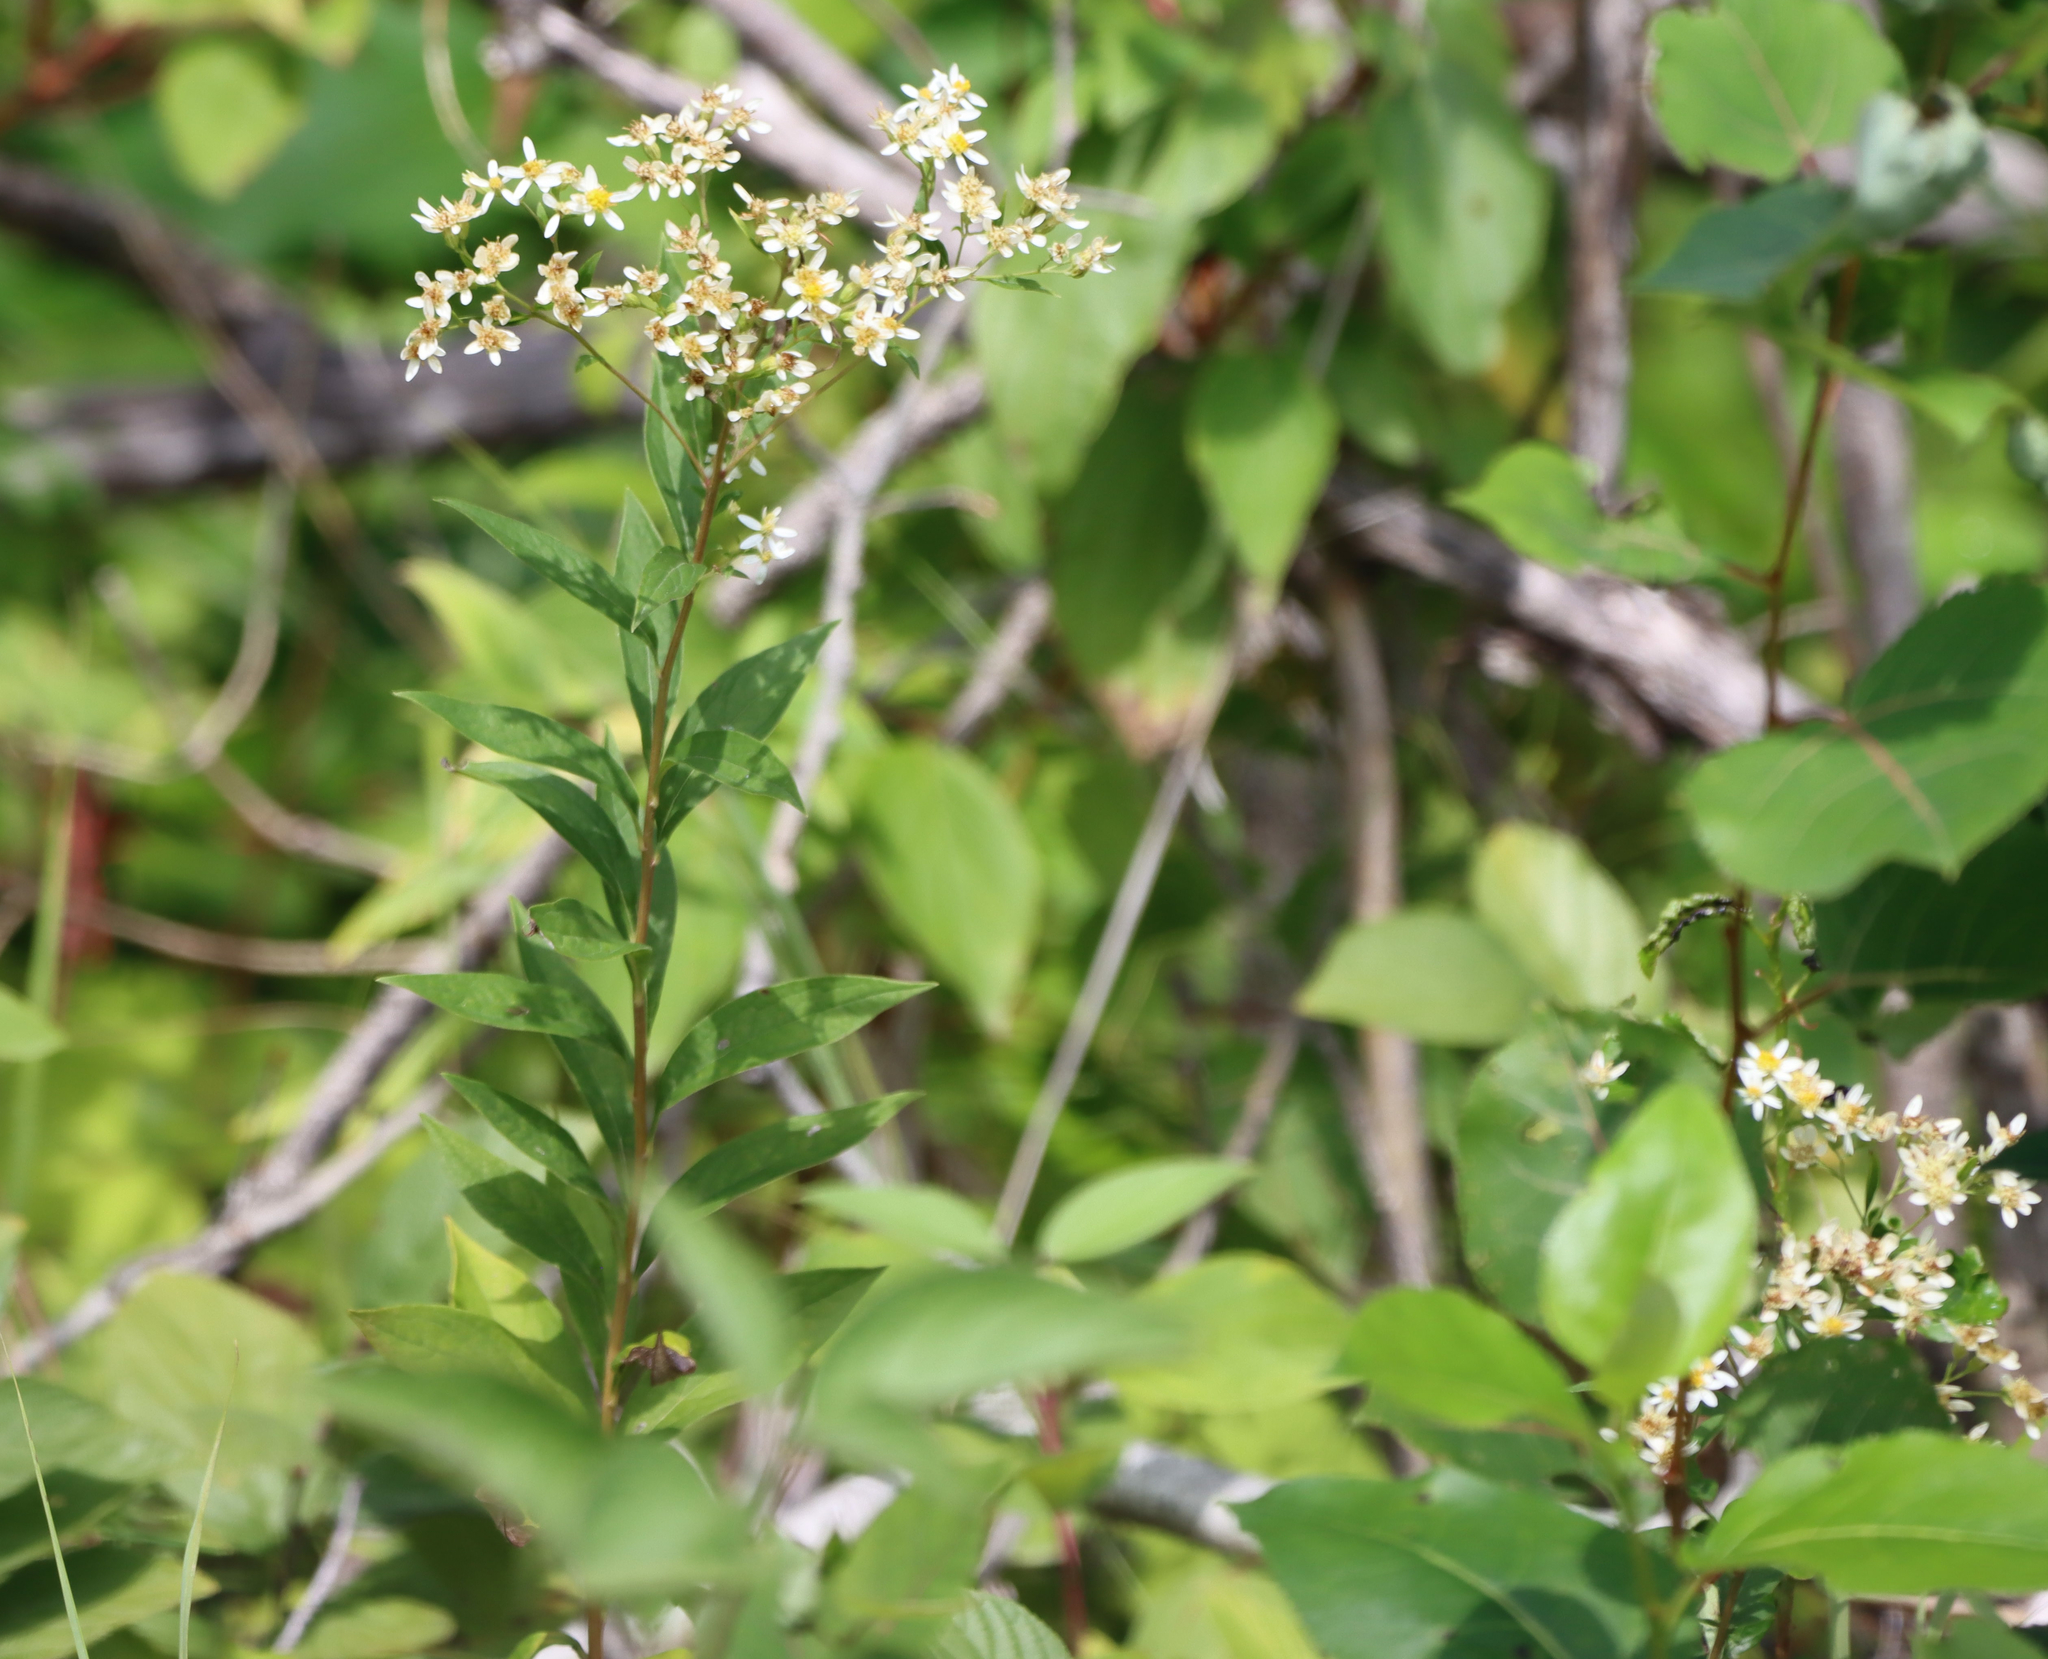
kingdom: Plantae
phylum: Tracheophyta
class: Magnoliopsida
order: Asterales
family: Asteraceae
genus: Doellingeria
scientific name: Doellingeria umbellata
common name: Flat-top white aster
